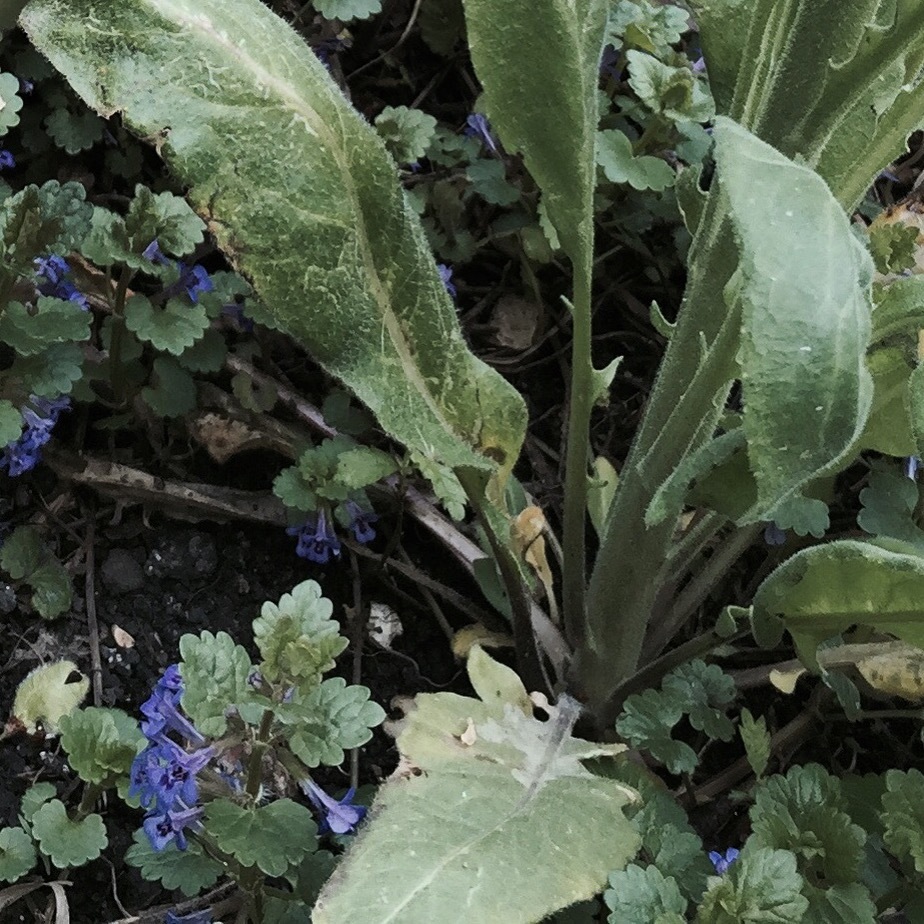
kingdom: Plantae
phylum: Tracheophyta
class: Magnoliopsida
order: Lamiales
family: Lamiaceae
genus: Glechoma
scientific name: Glechoma hederacea
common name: Ground ivy
